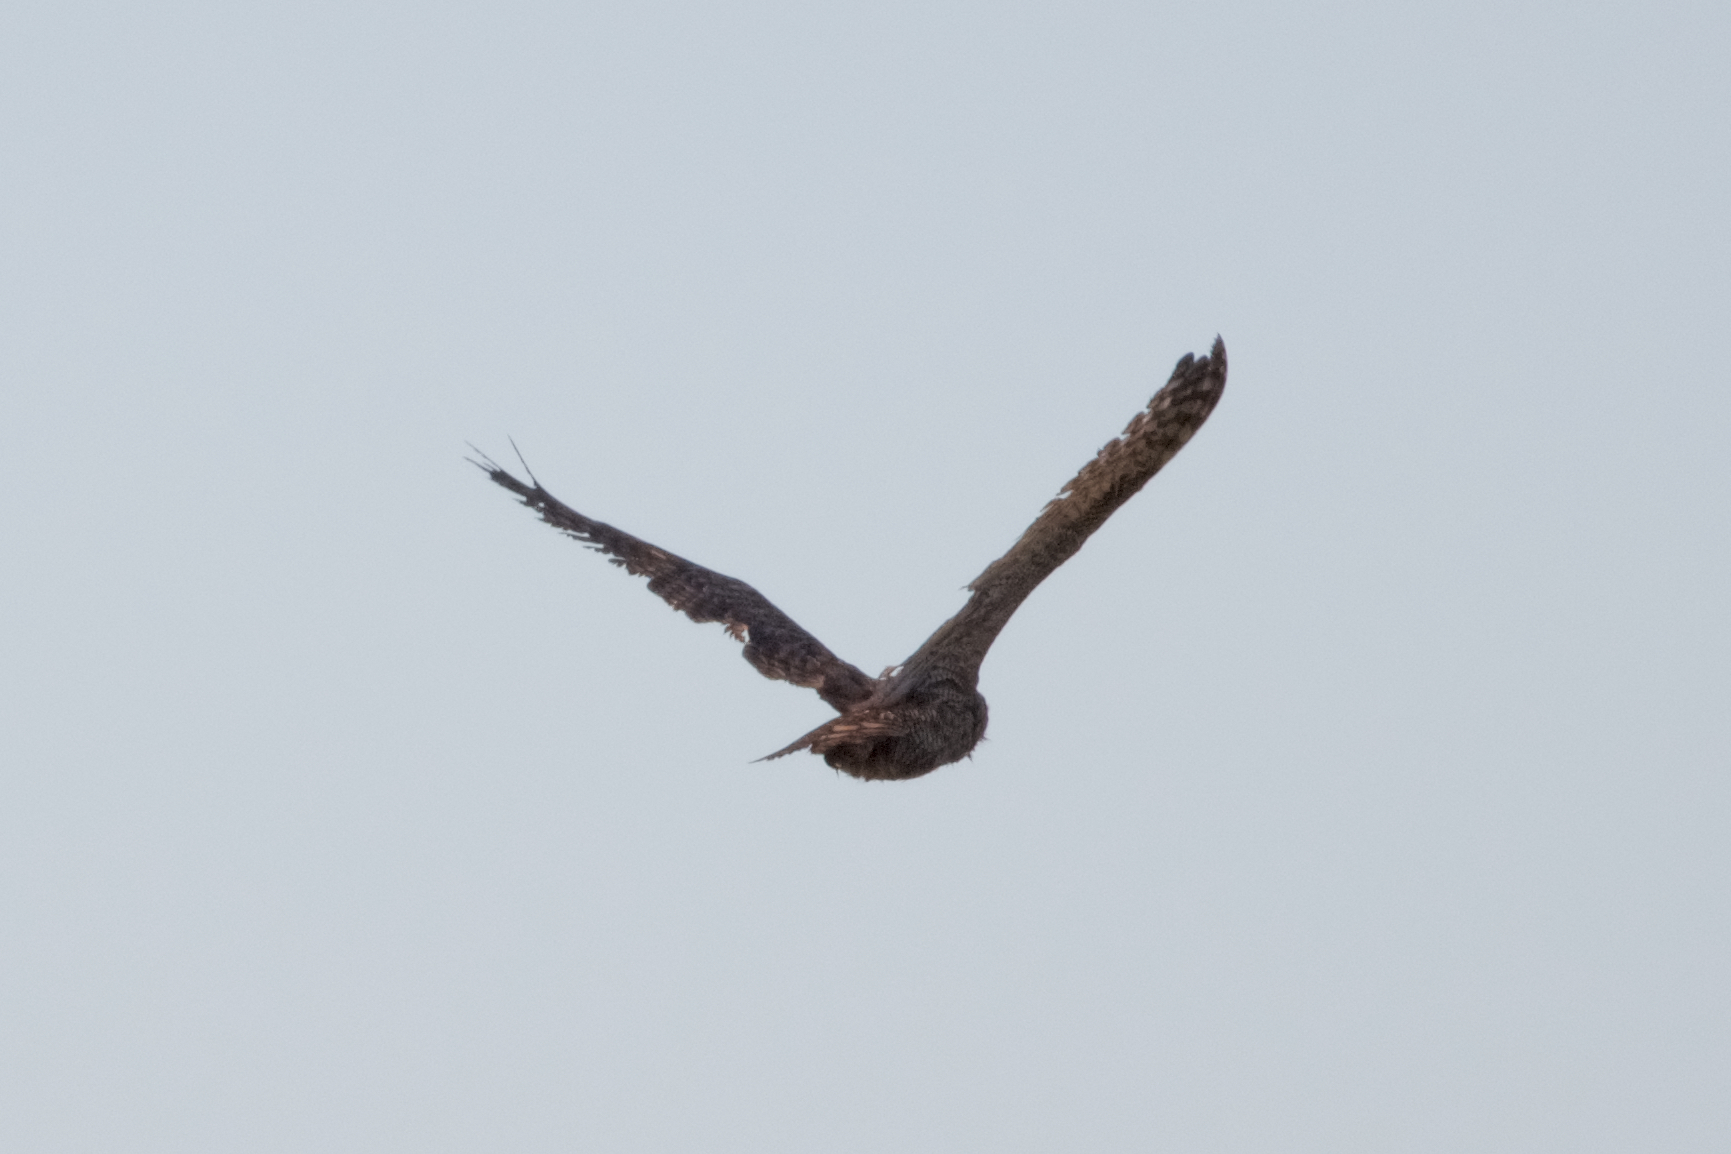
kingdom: Animalia
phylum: Chordata
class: Aves
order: Strigiformes
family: Strigidae
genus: Bubo
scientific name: Bubo virginianus
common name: Great horned owl
